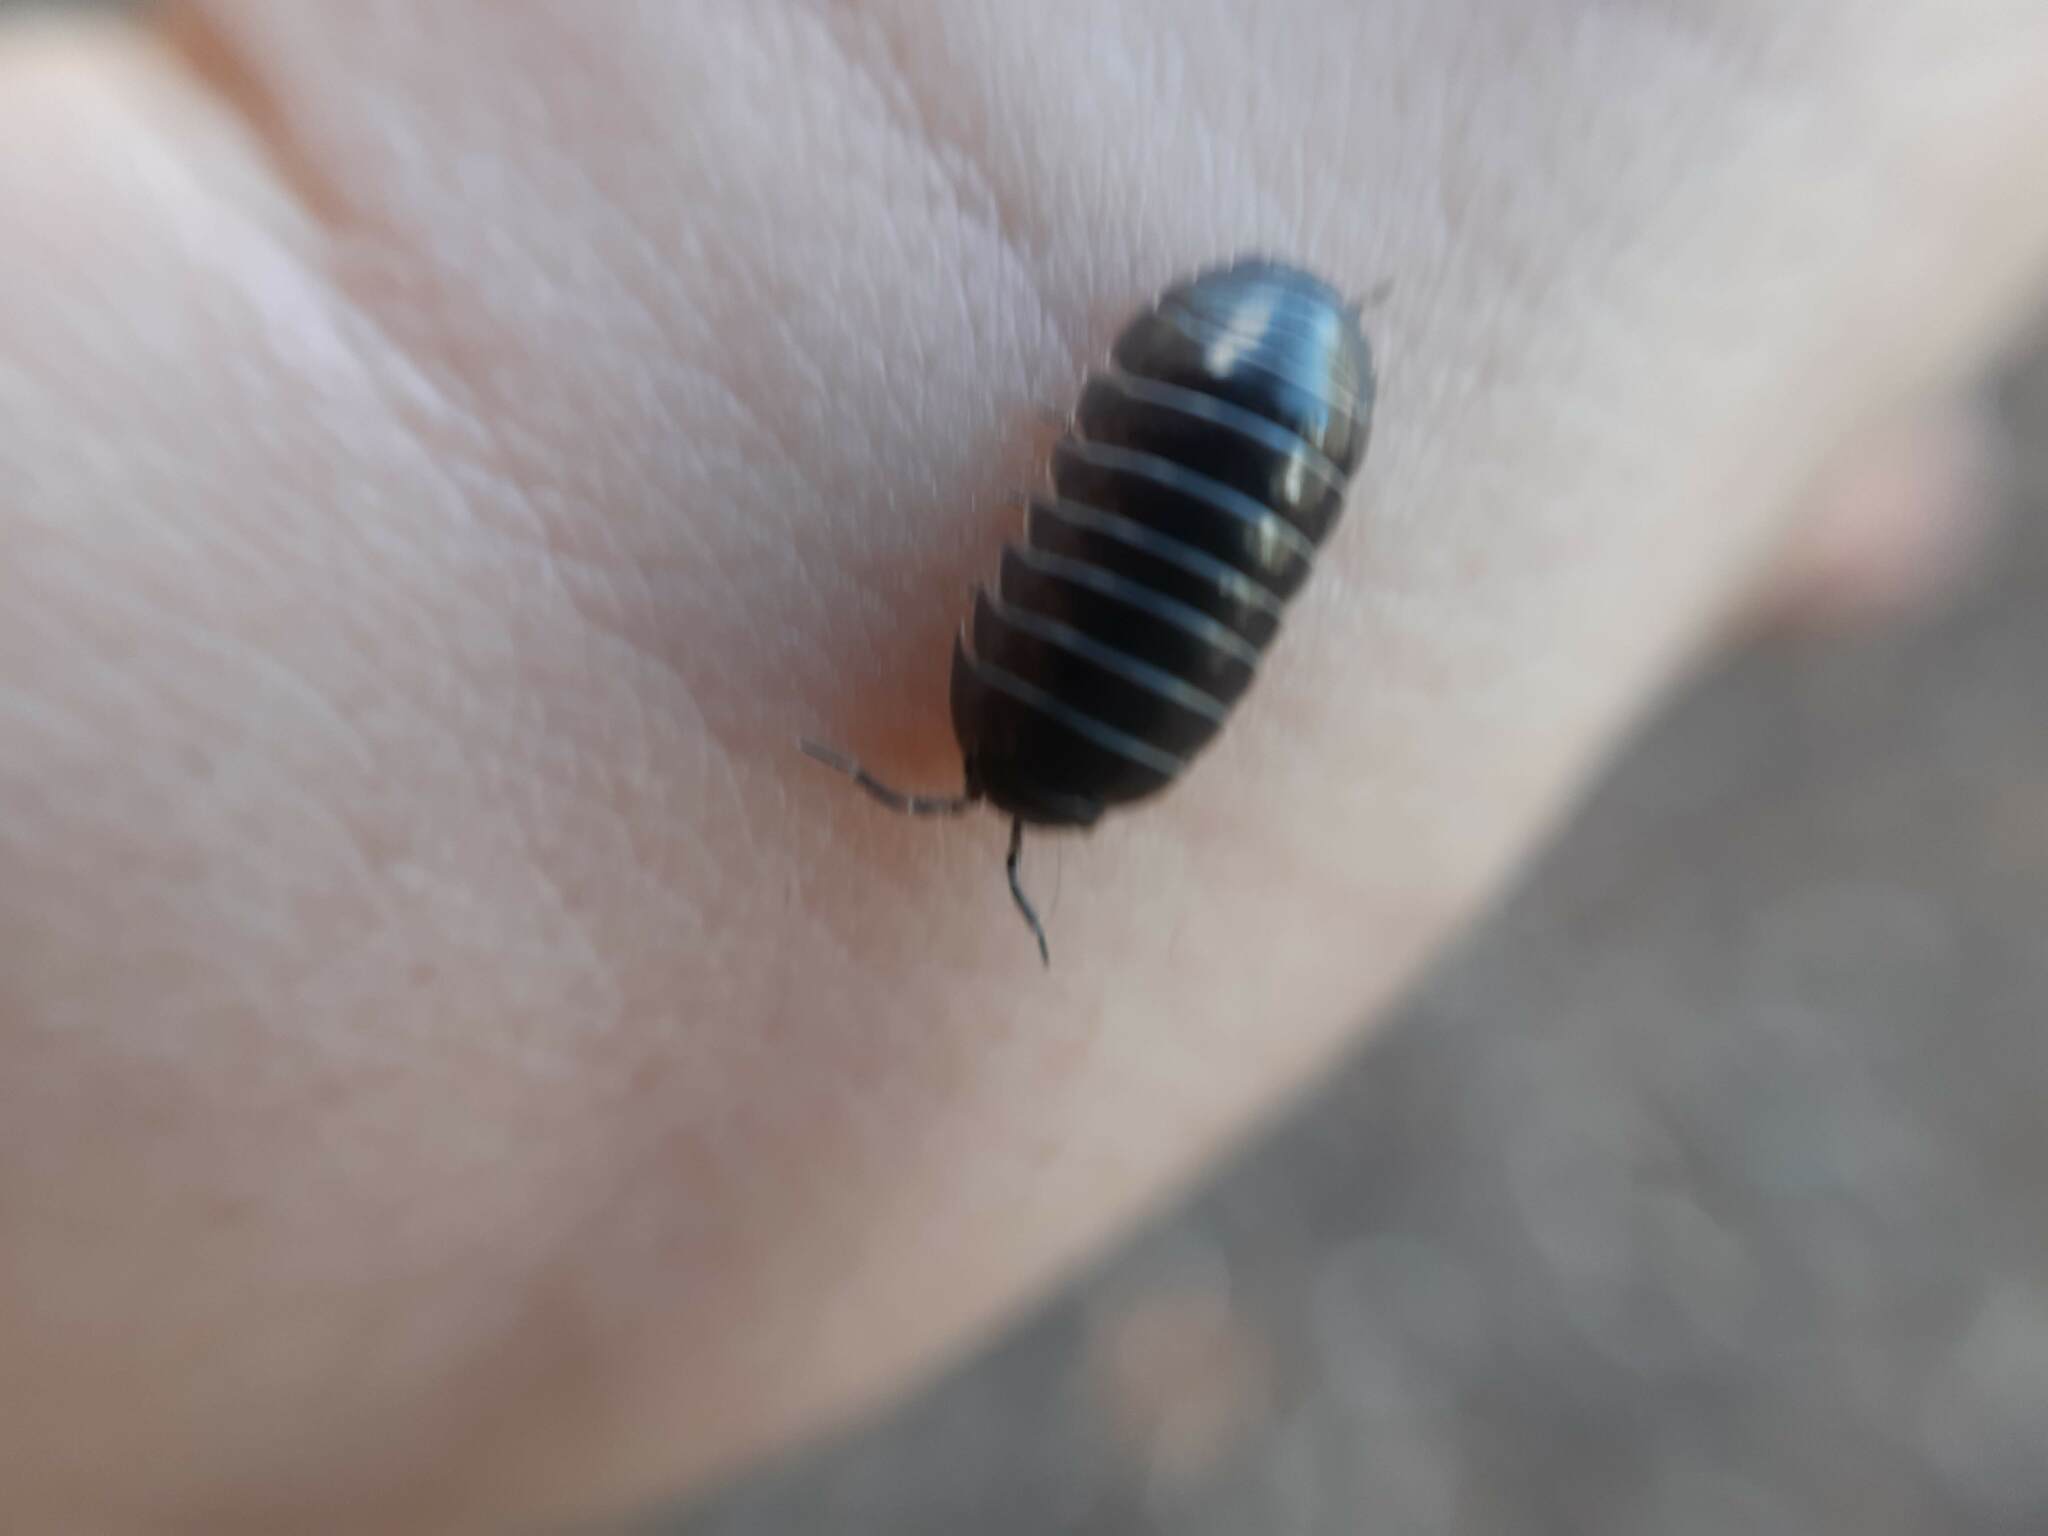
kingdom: Animalia
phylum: Arthropoda
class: Malacostraca
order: Isopoda
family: Armadillidiidae
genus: Armadillidium
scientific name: Armadillidium vulgare
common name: Common pill woodlouse
